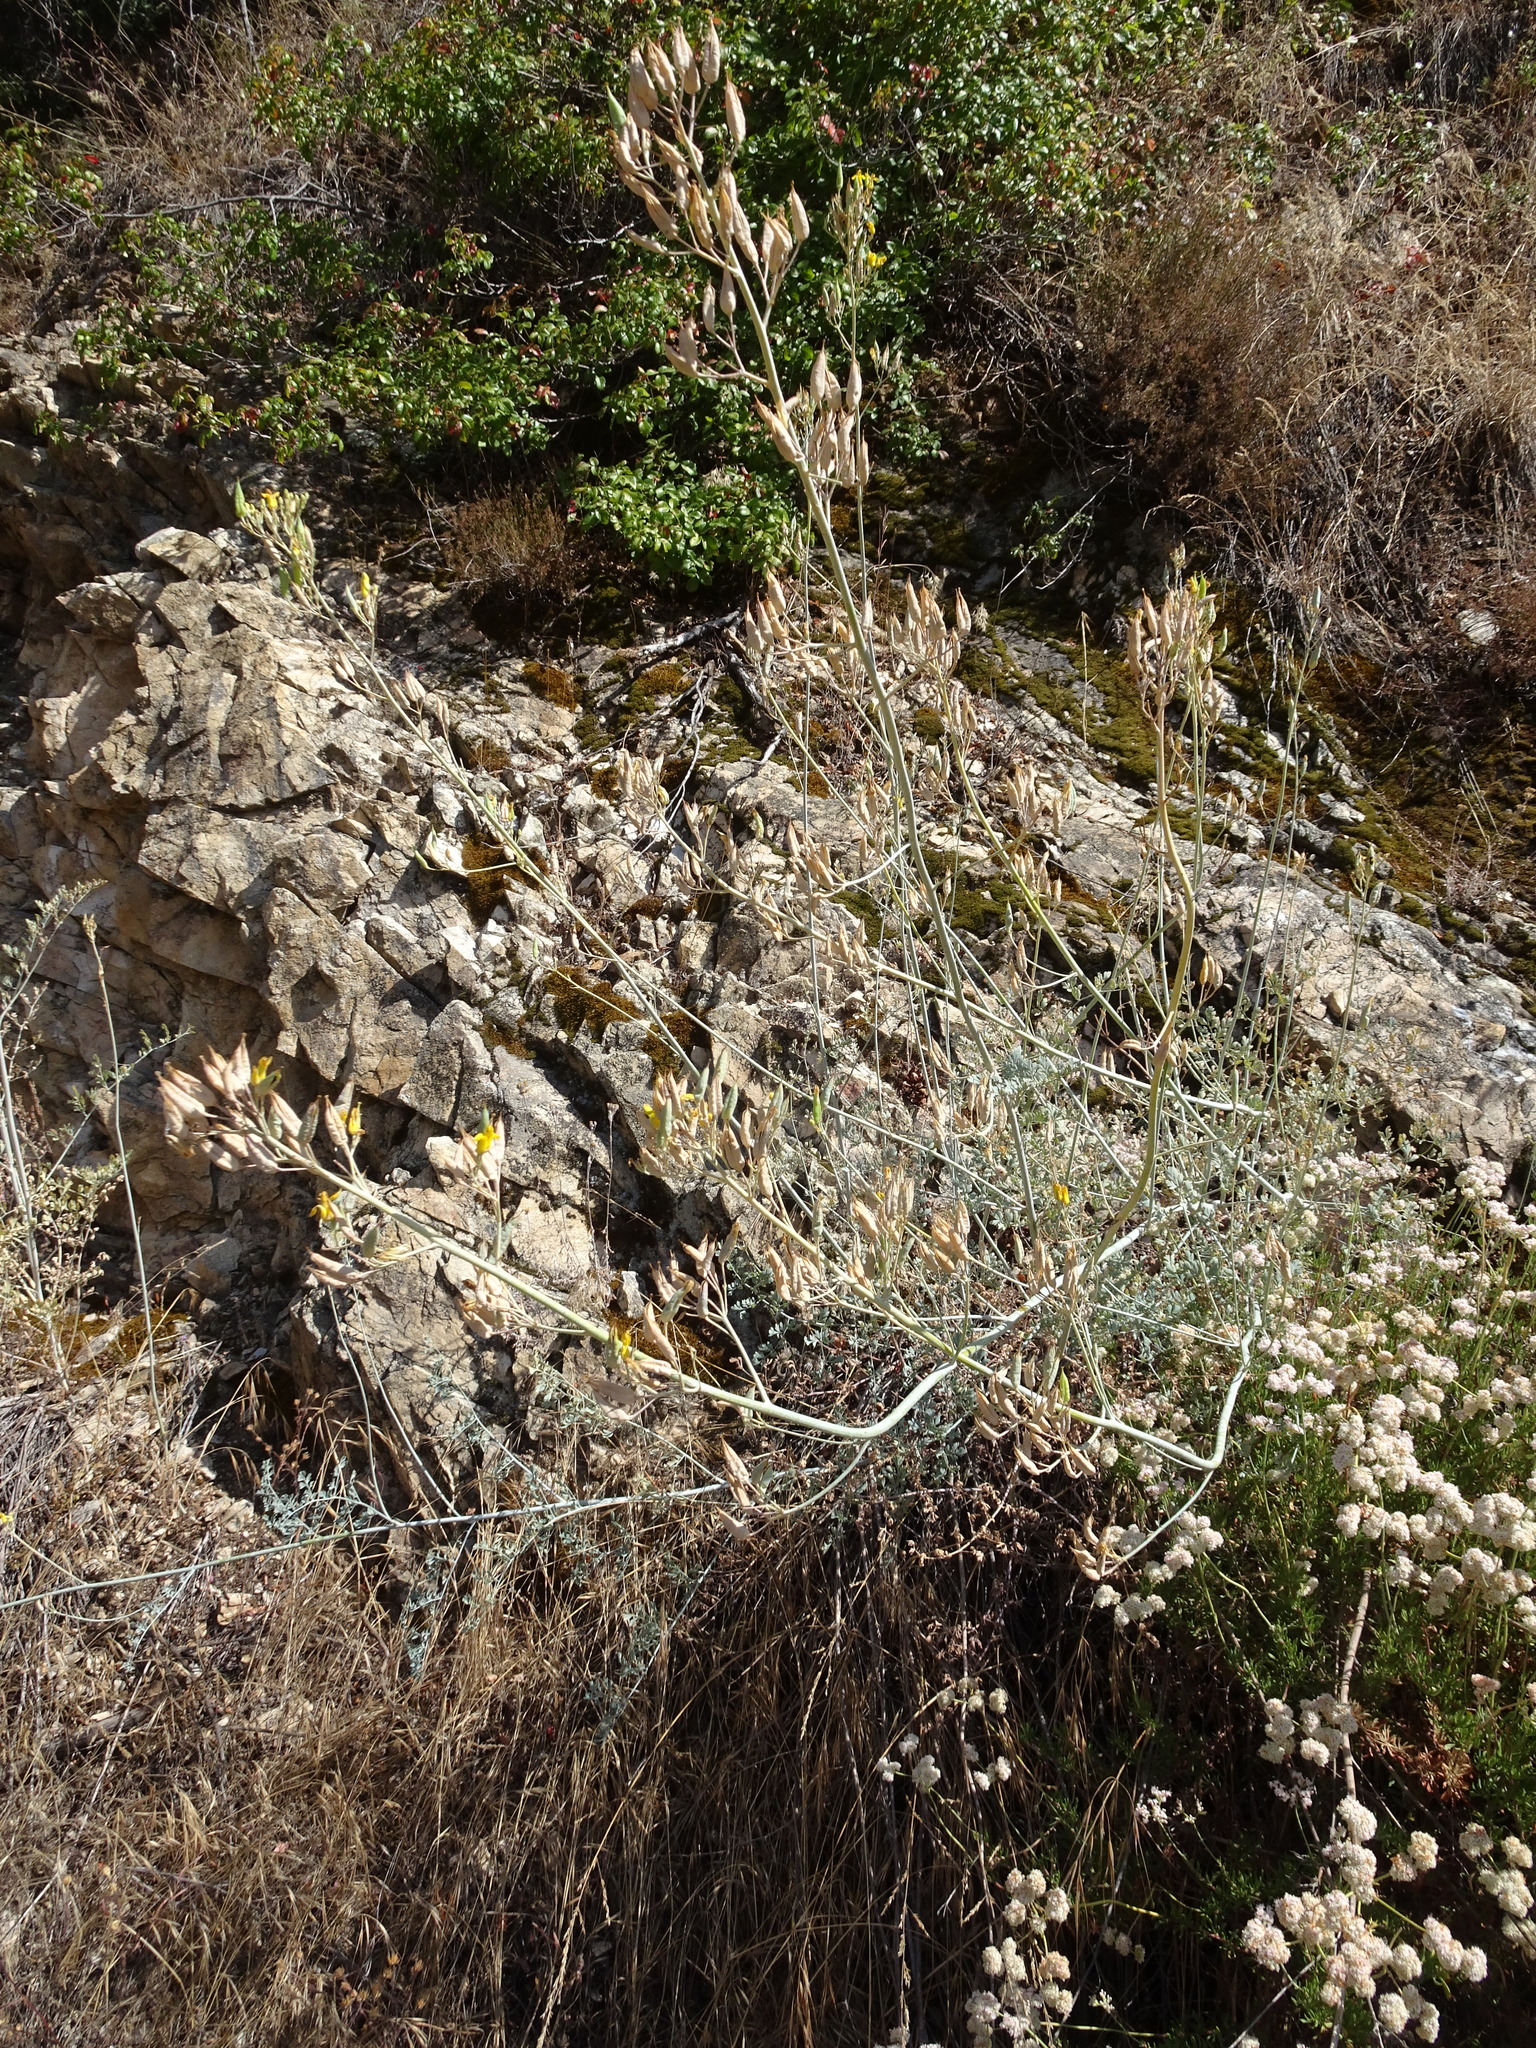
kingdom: Plantae
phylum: Tracheophyta
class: Magnoliopsida
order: Ranunculales
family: Papaveraceae
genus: Ehrendorferia
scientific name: Ehrendorferia chrysantha
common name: Golden eardrops
